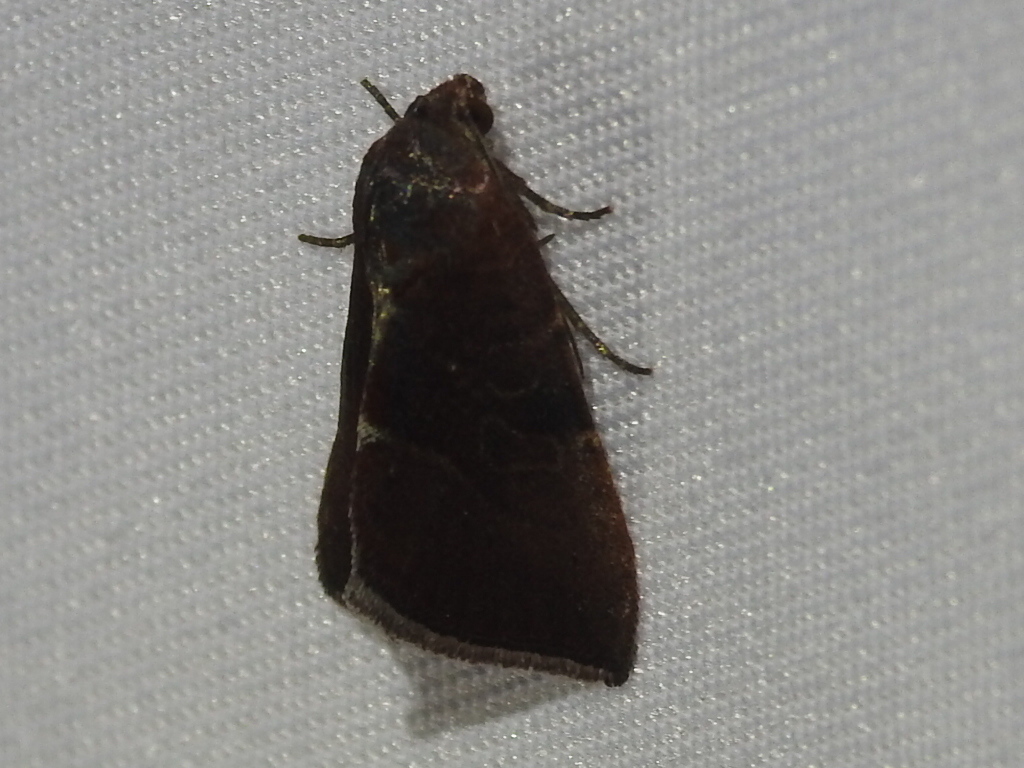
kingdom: Animalia
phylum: Arthropoda
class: Insecta
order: Lepidoptera
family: Noctuidae
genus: Galgula
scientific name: Galgula partita
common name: Wedgeling
